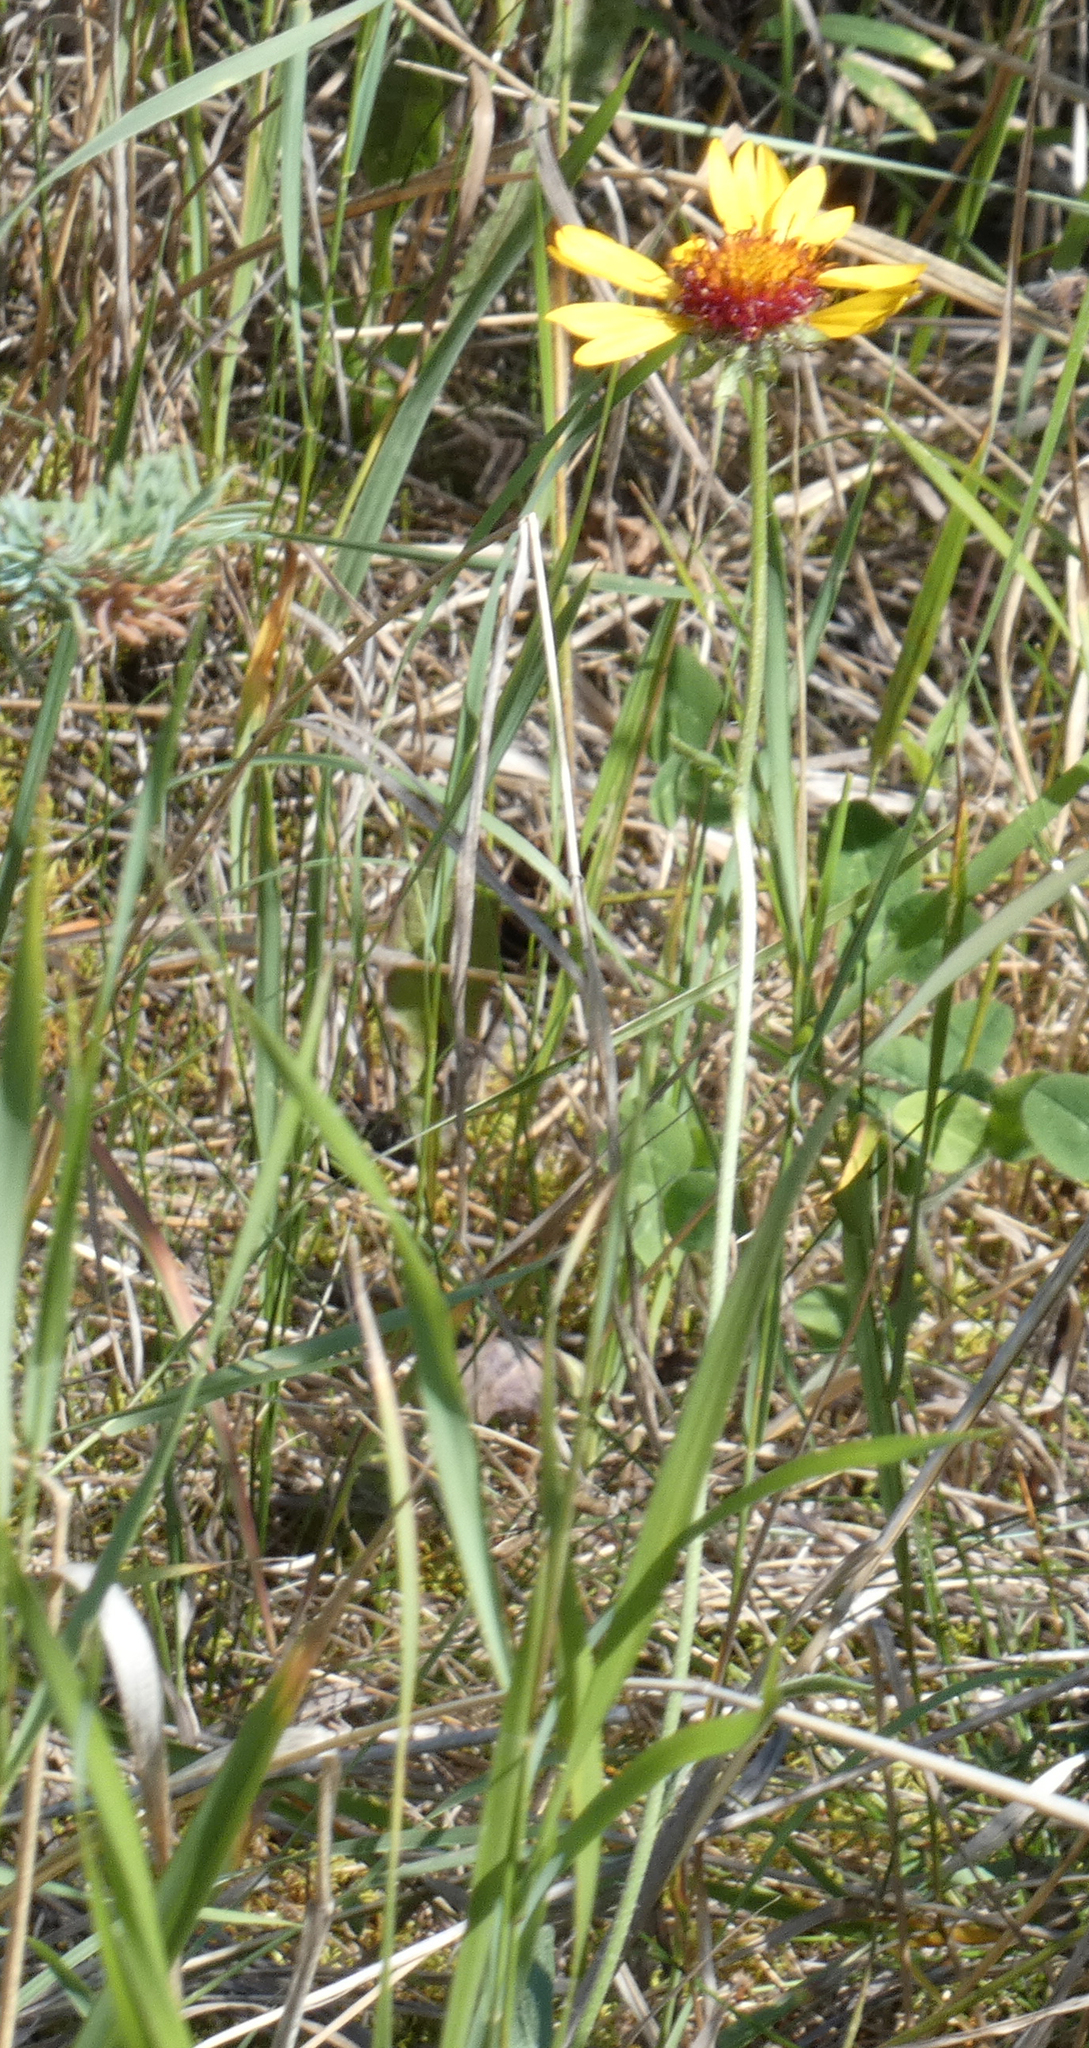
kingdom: Plantae
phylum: Tracheophyta
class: Magnoliopsida
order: Asterales
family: Asteraceae
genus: Gaillardia
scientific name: Gaillardia aristata
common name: Blanket-flower
